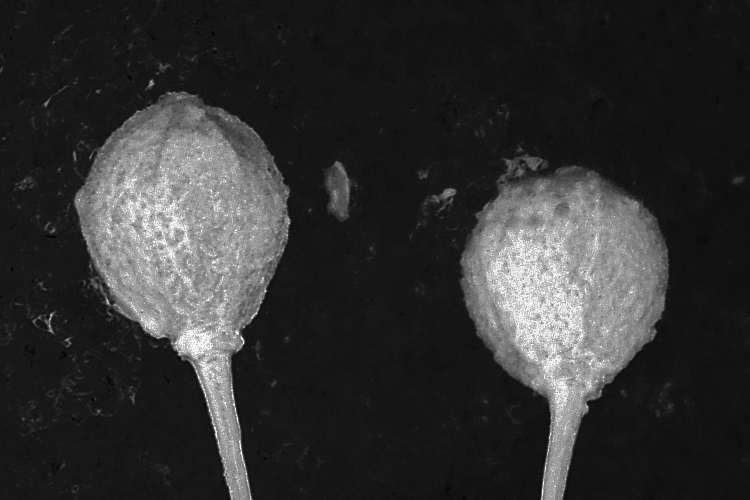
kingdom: Plantae
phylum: Tracheophyta
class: Magnoliopsida
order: Malvales
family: Malvaceae
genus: Tilia
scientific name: Tilia platyphyllos
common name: Large-leaved lime
